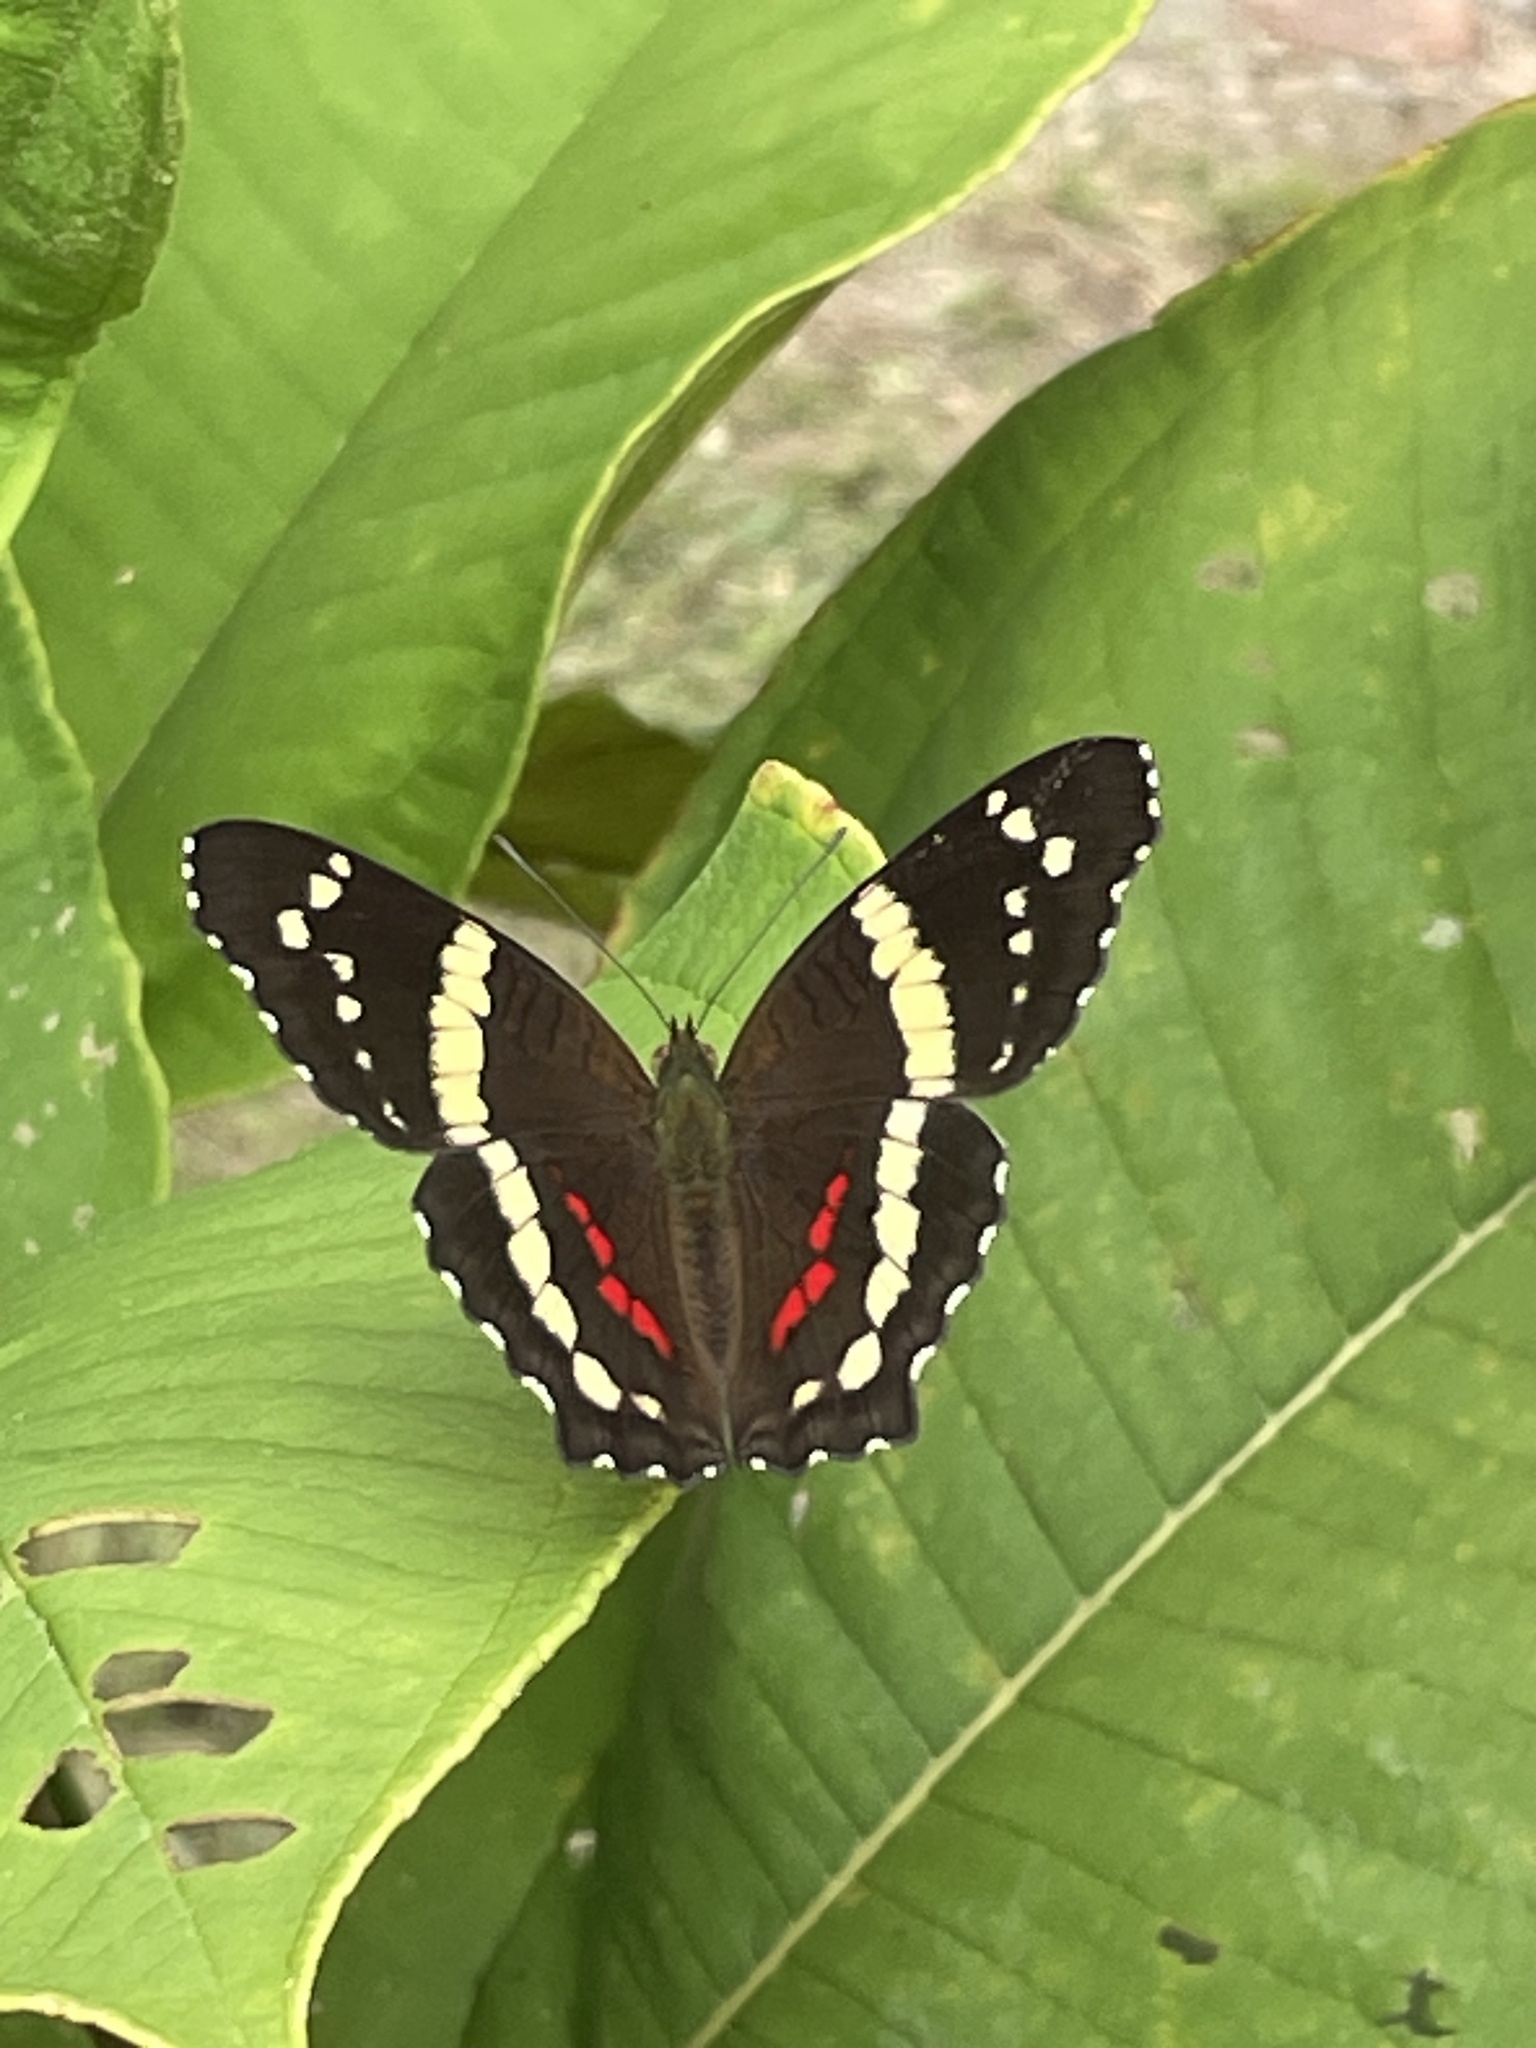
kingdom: Animalia
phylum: Arthropoda
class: Insecta
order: Lepidoptera
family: Nymphalidae
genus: Anartia
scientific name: Anartia fatima
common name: Banded peacock
